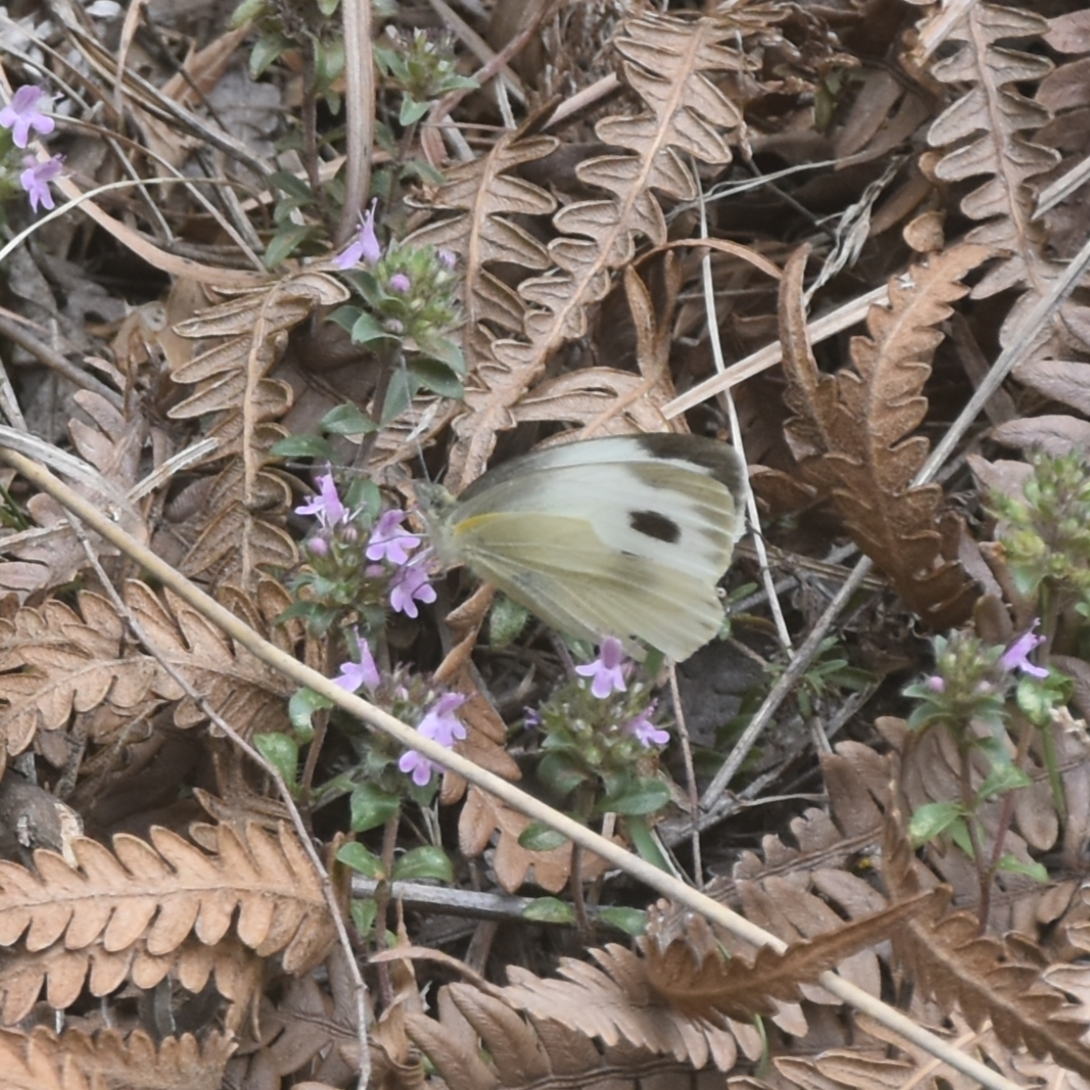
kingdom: Animalia
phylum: Arthropoda
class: Insecta
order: Lepidoptera
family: Pieridae
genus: Pieris
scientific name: Pieris canidia
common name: Indian cabbage white
